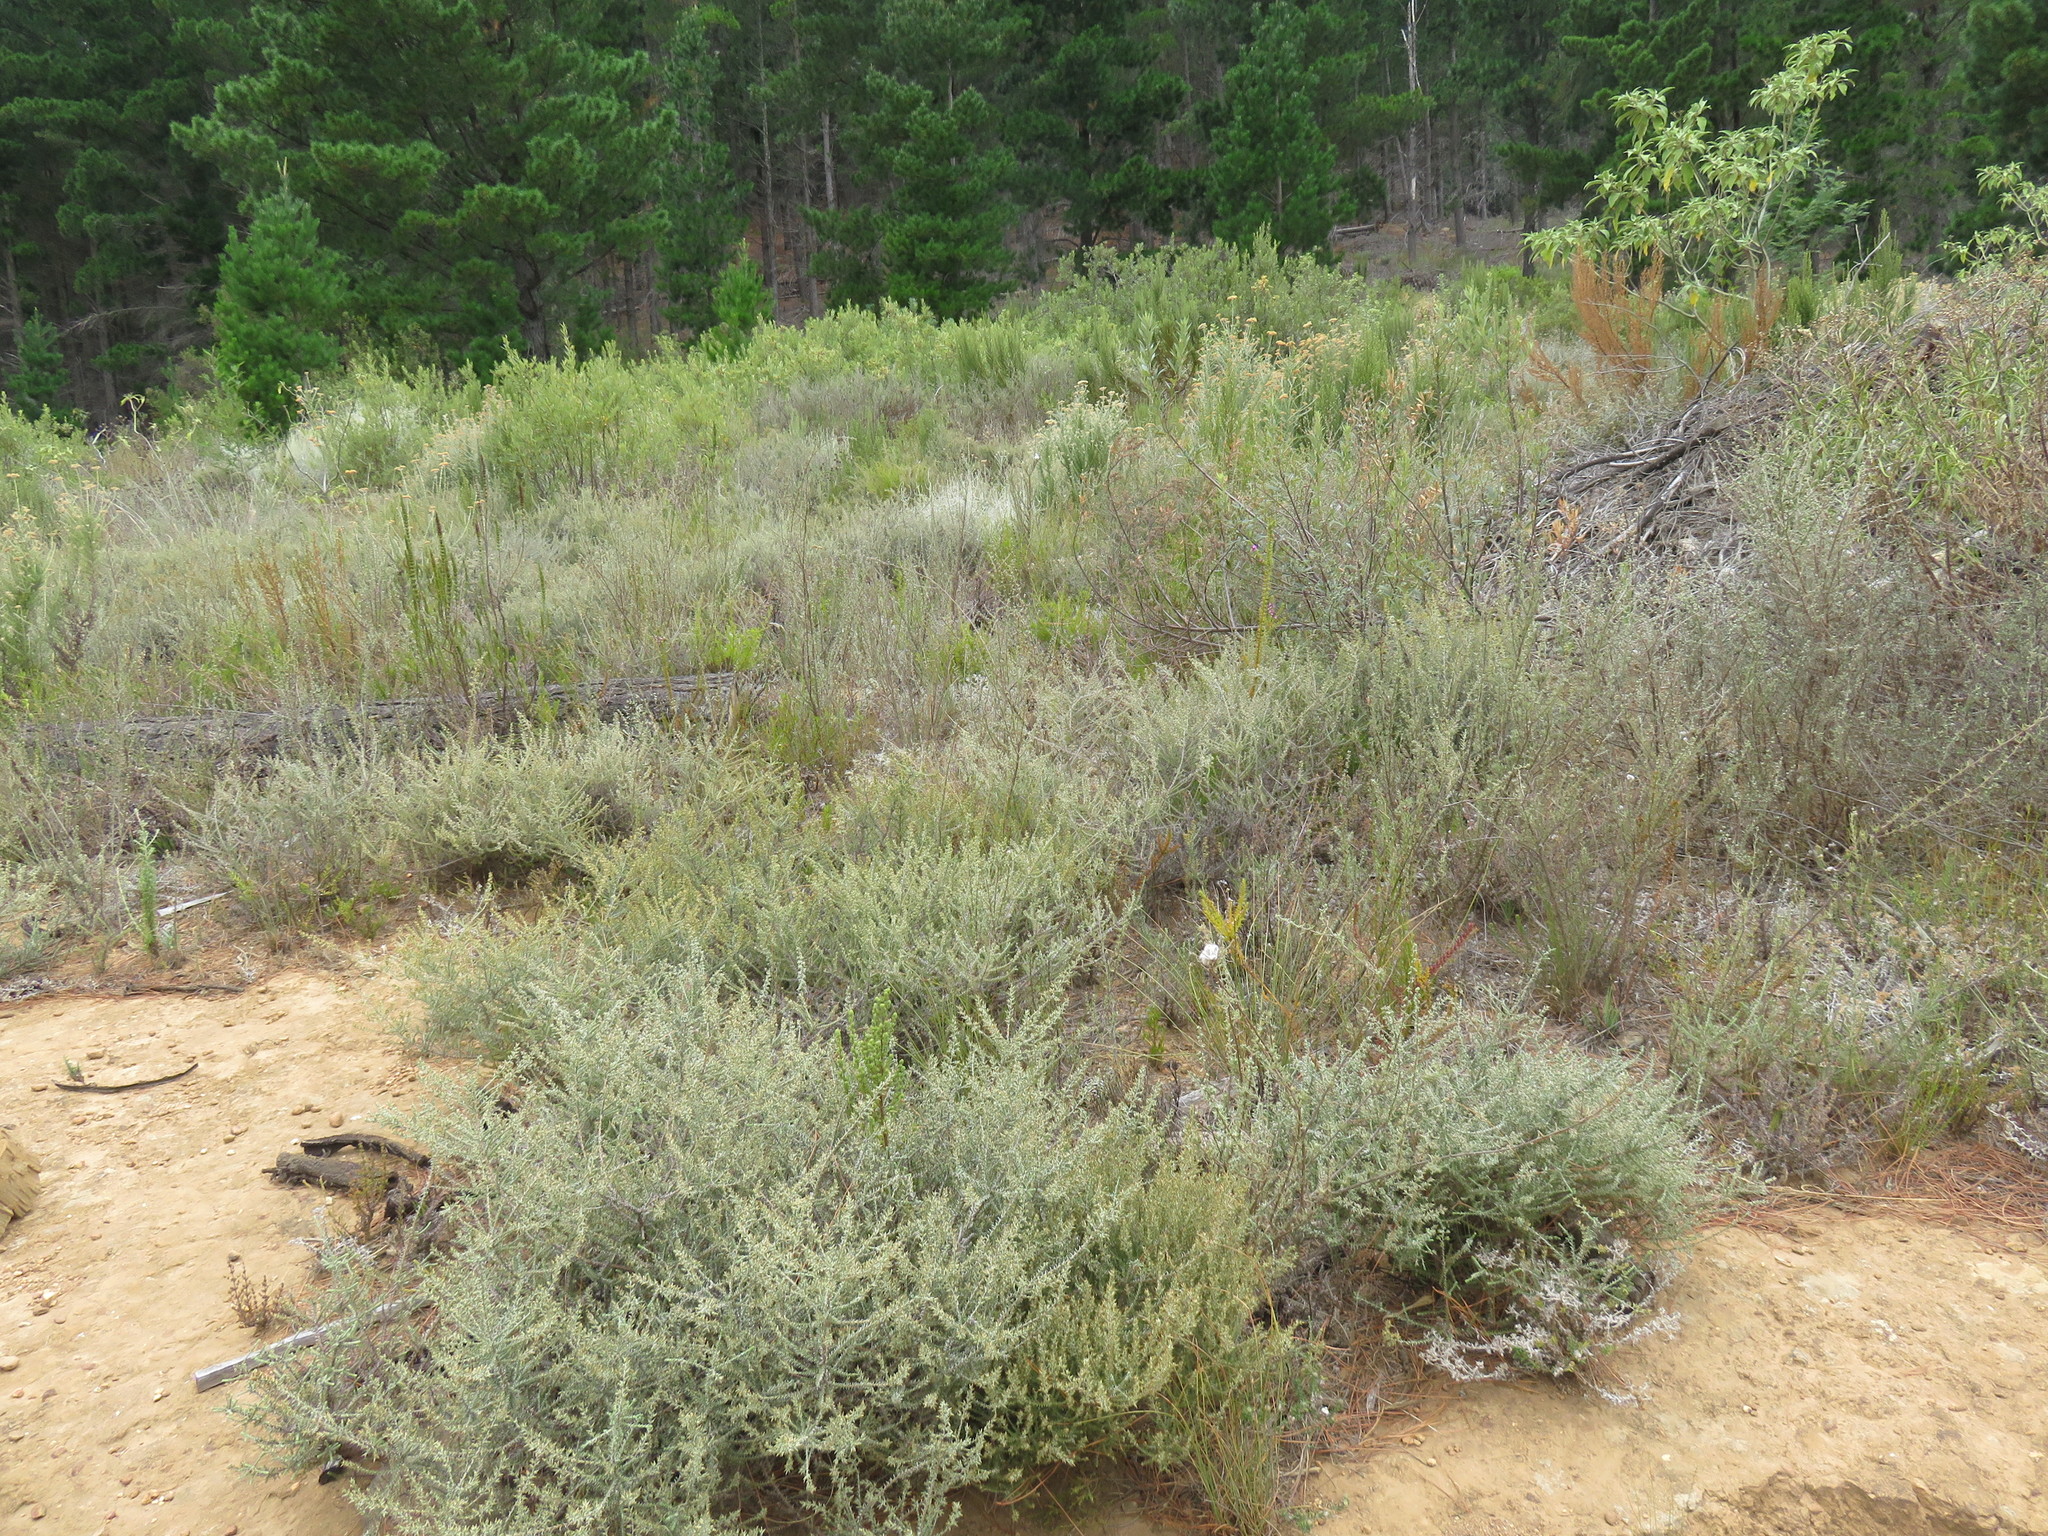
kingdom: Plantae
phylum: Tracheophyta
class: Magnoliopsida
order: Asterales
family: Asteraceae
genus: Seriphium
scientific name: Seriphium plumosum
